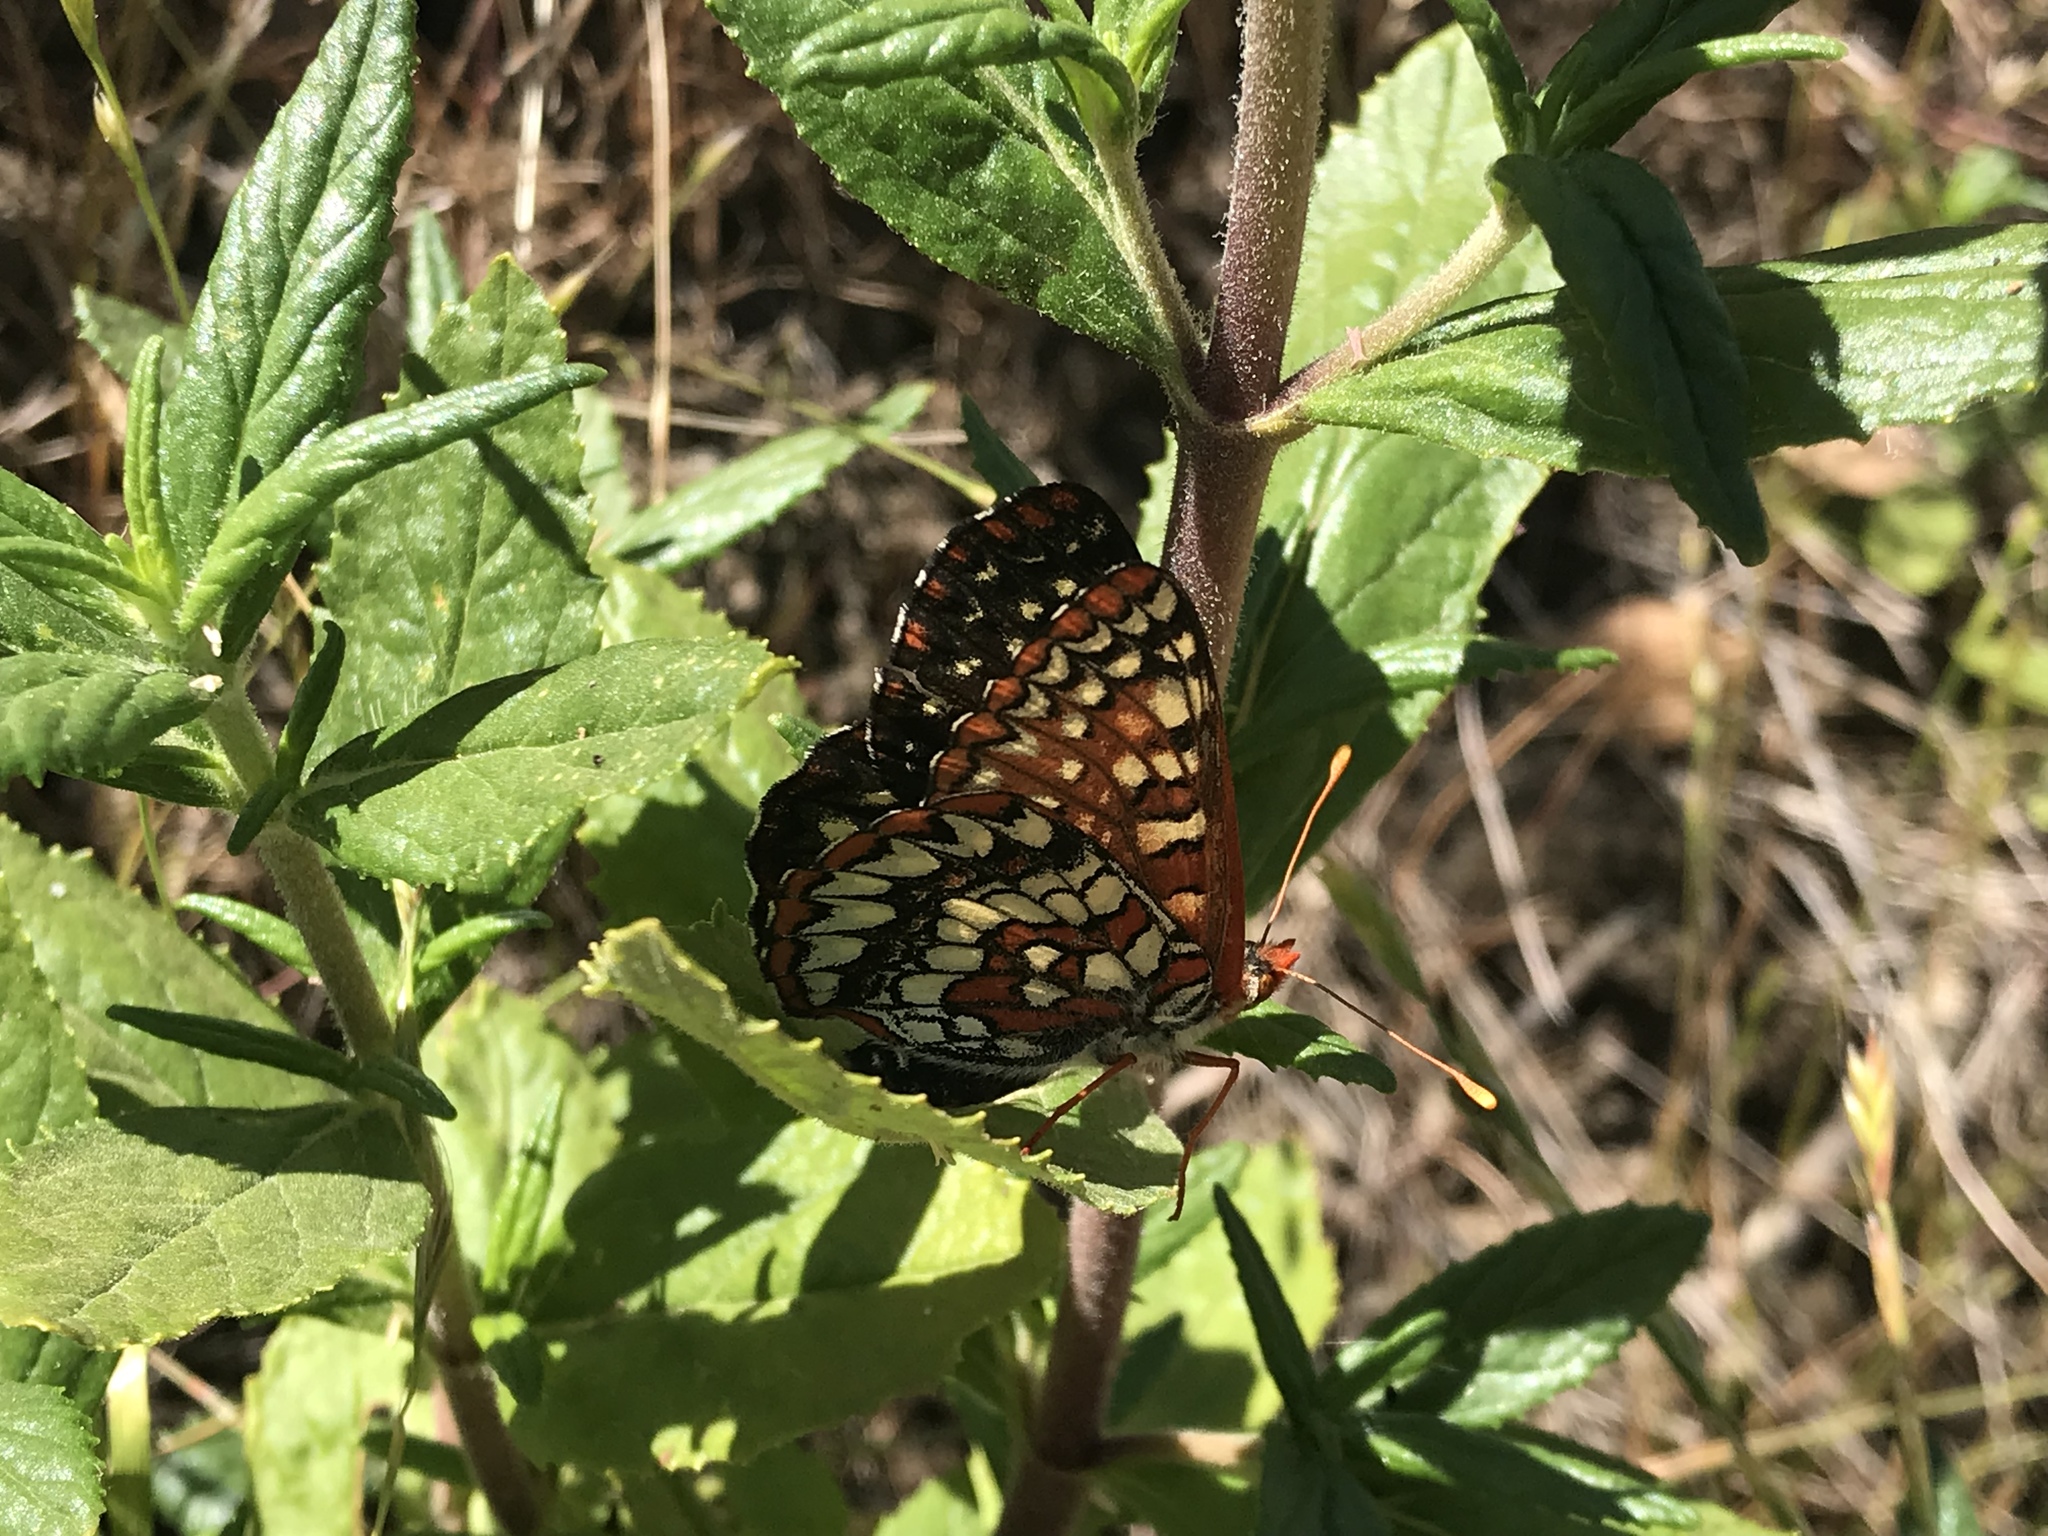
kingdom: Animalia
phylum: Arthropoda
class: Insecta
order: Lepidoptera
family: Nymphalidae
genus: Occidryas
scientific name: Occidryas chalcedona
